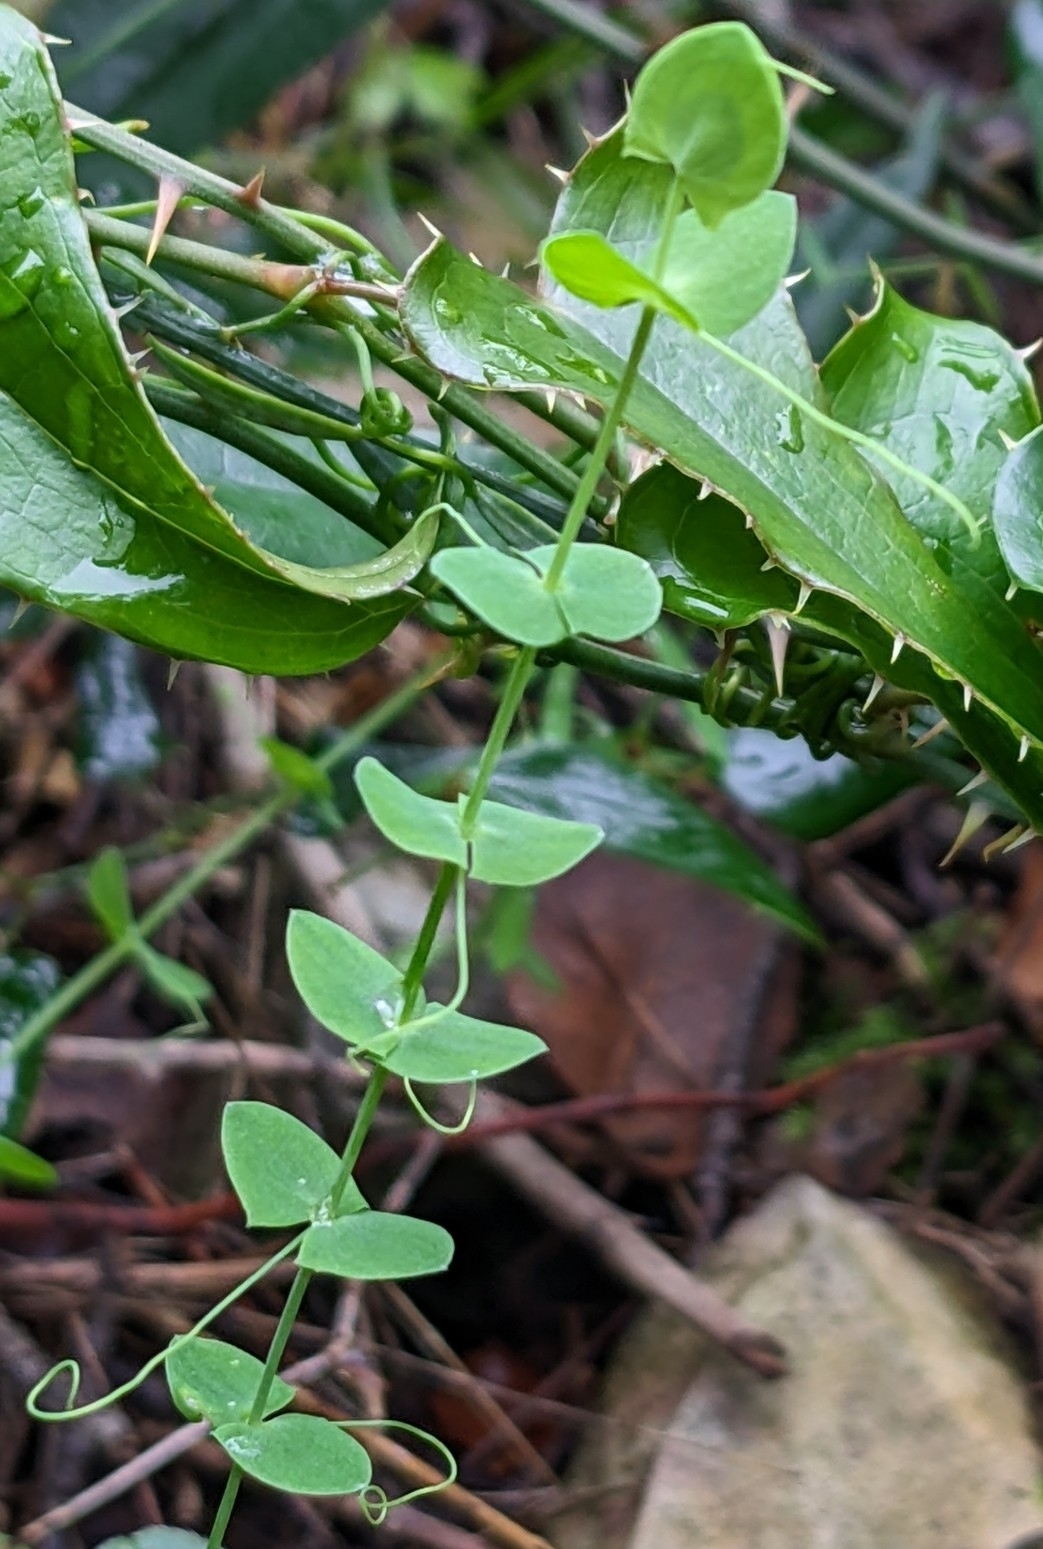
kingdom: Plantae
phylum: Tracheophyta
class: Magnoliopsida
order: Fabales
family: Fabaceae
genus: Lathyrus
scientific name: Lathyrus aphaca
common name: Yellow vetchling
